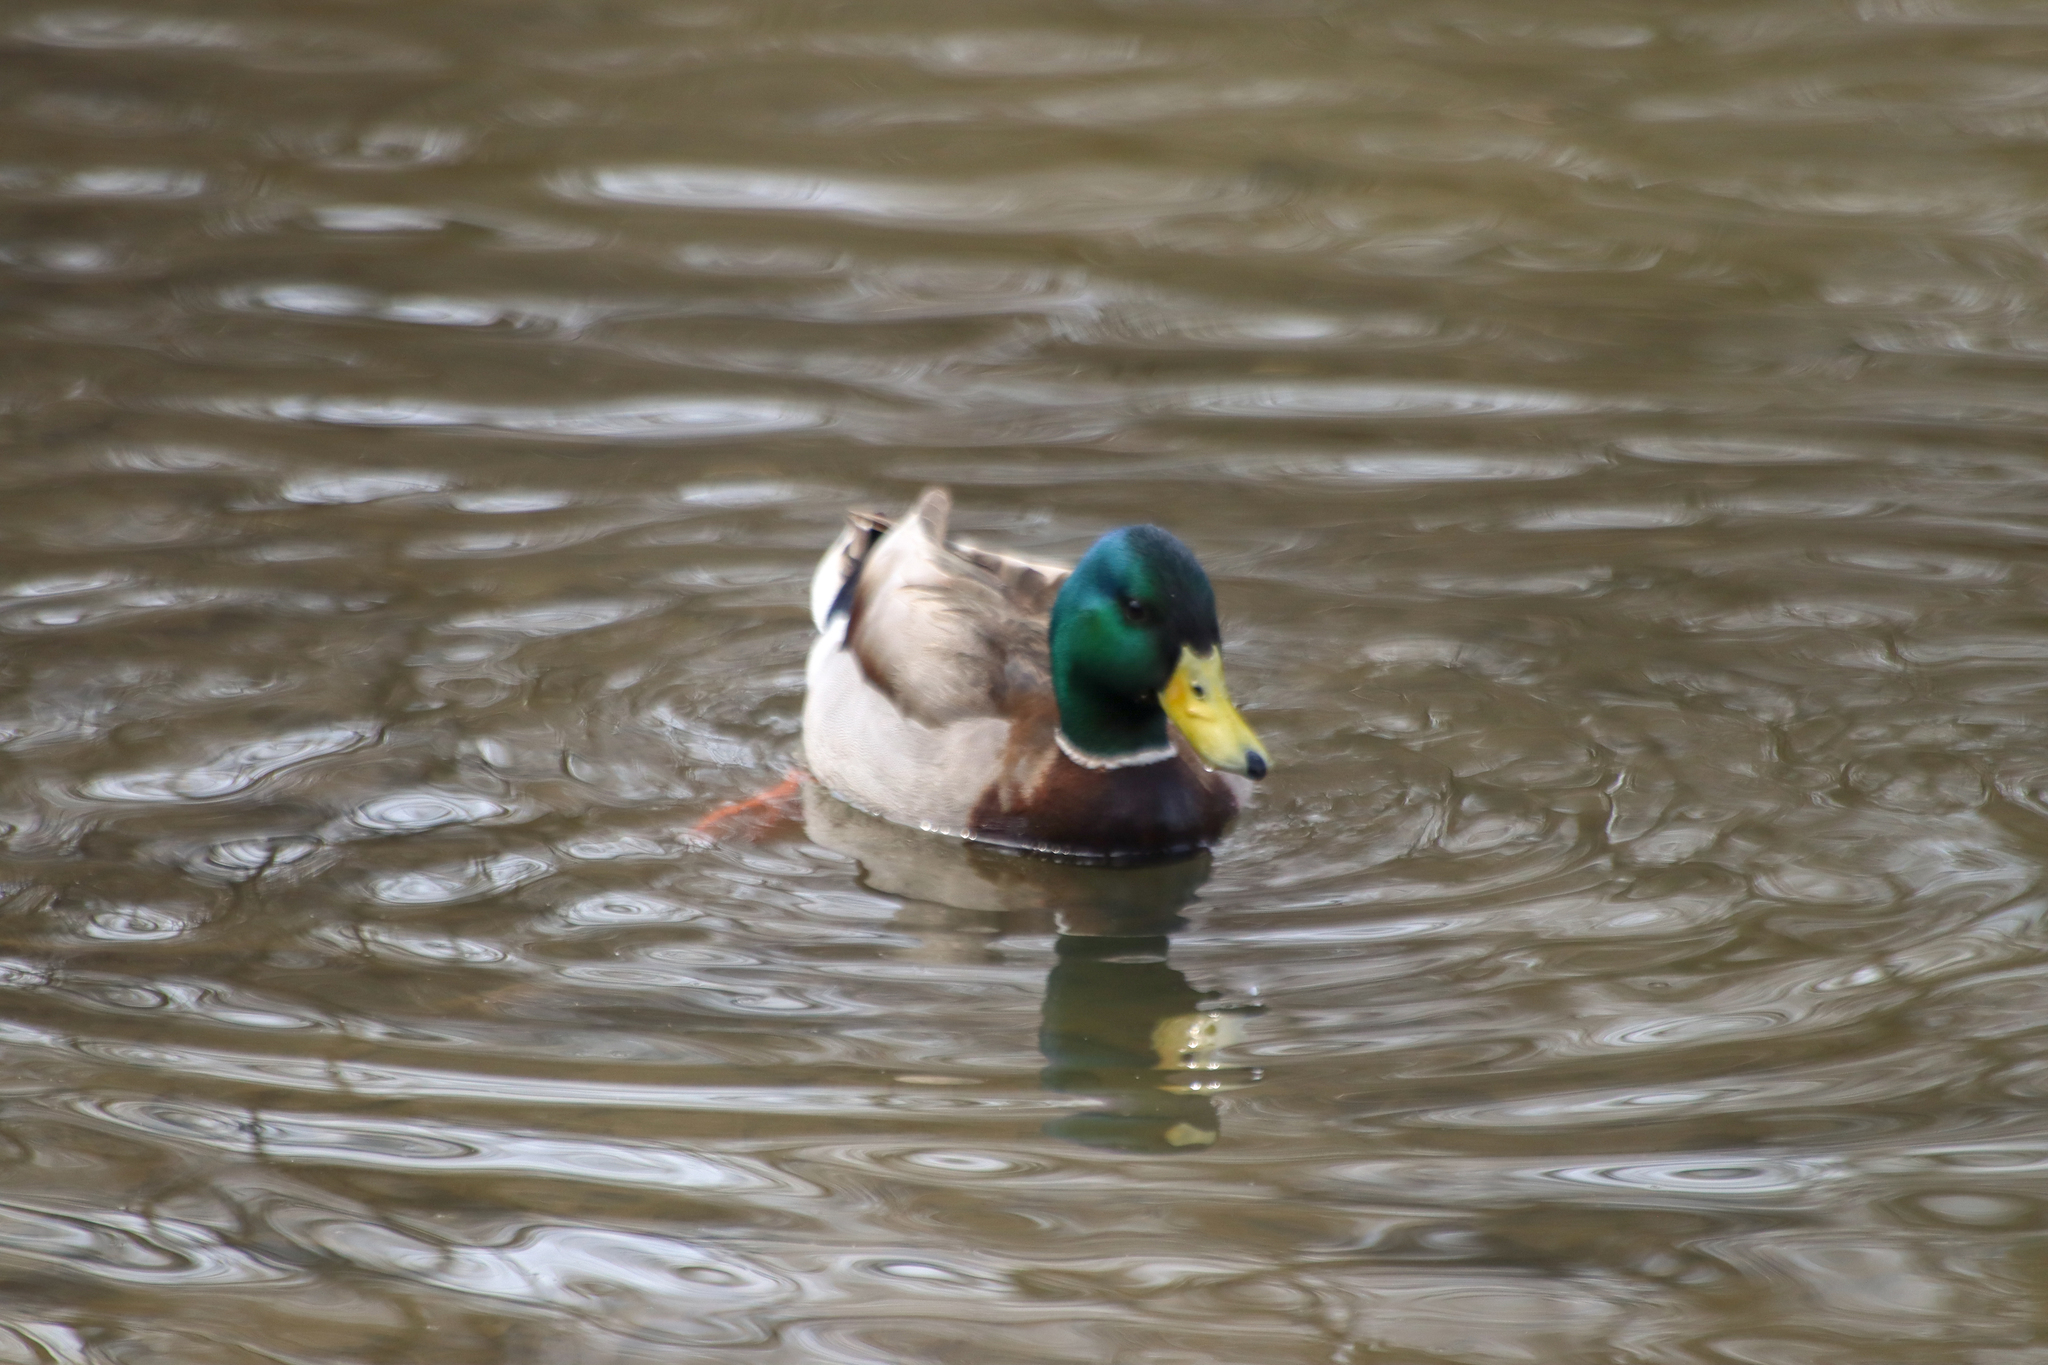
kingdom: Animalia
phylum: Chordata
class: Aves
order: Anseriformes
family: Anatidae
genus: Anas
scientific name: Anas platyrhynchos
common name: Mallard
